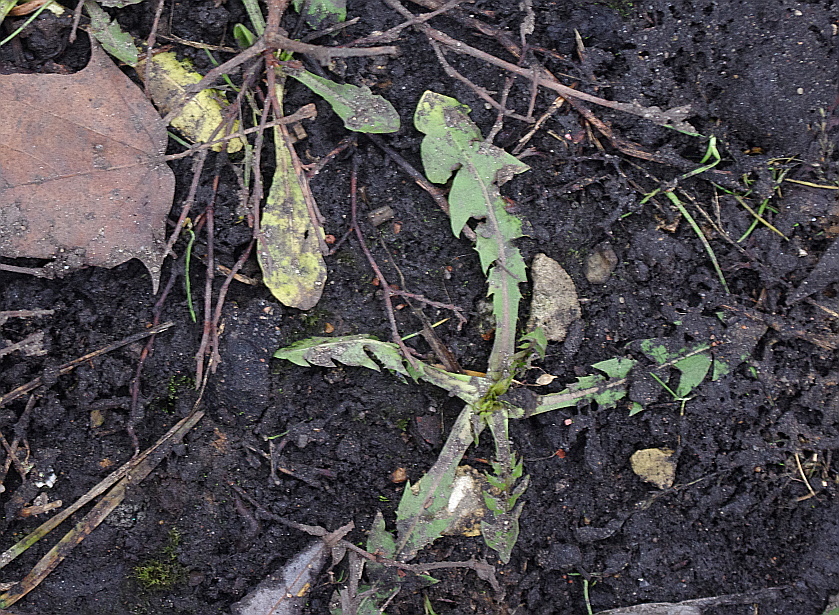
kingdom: Plantae
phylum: Tracheophyta
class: Magnoliopsida
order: Asterales
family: Asteraceae
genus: Taraxacum
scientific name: Taraxacum officinale
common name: Common dandelion
